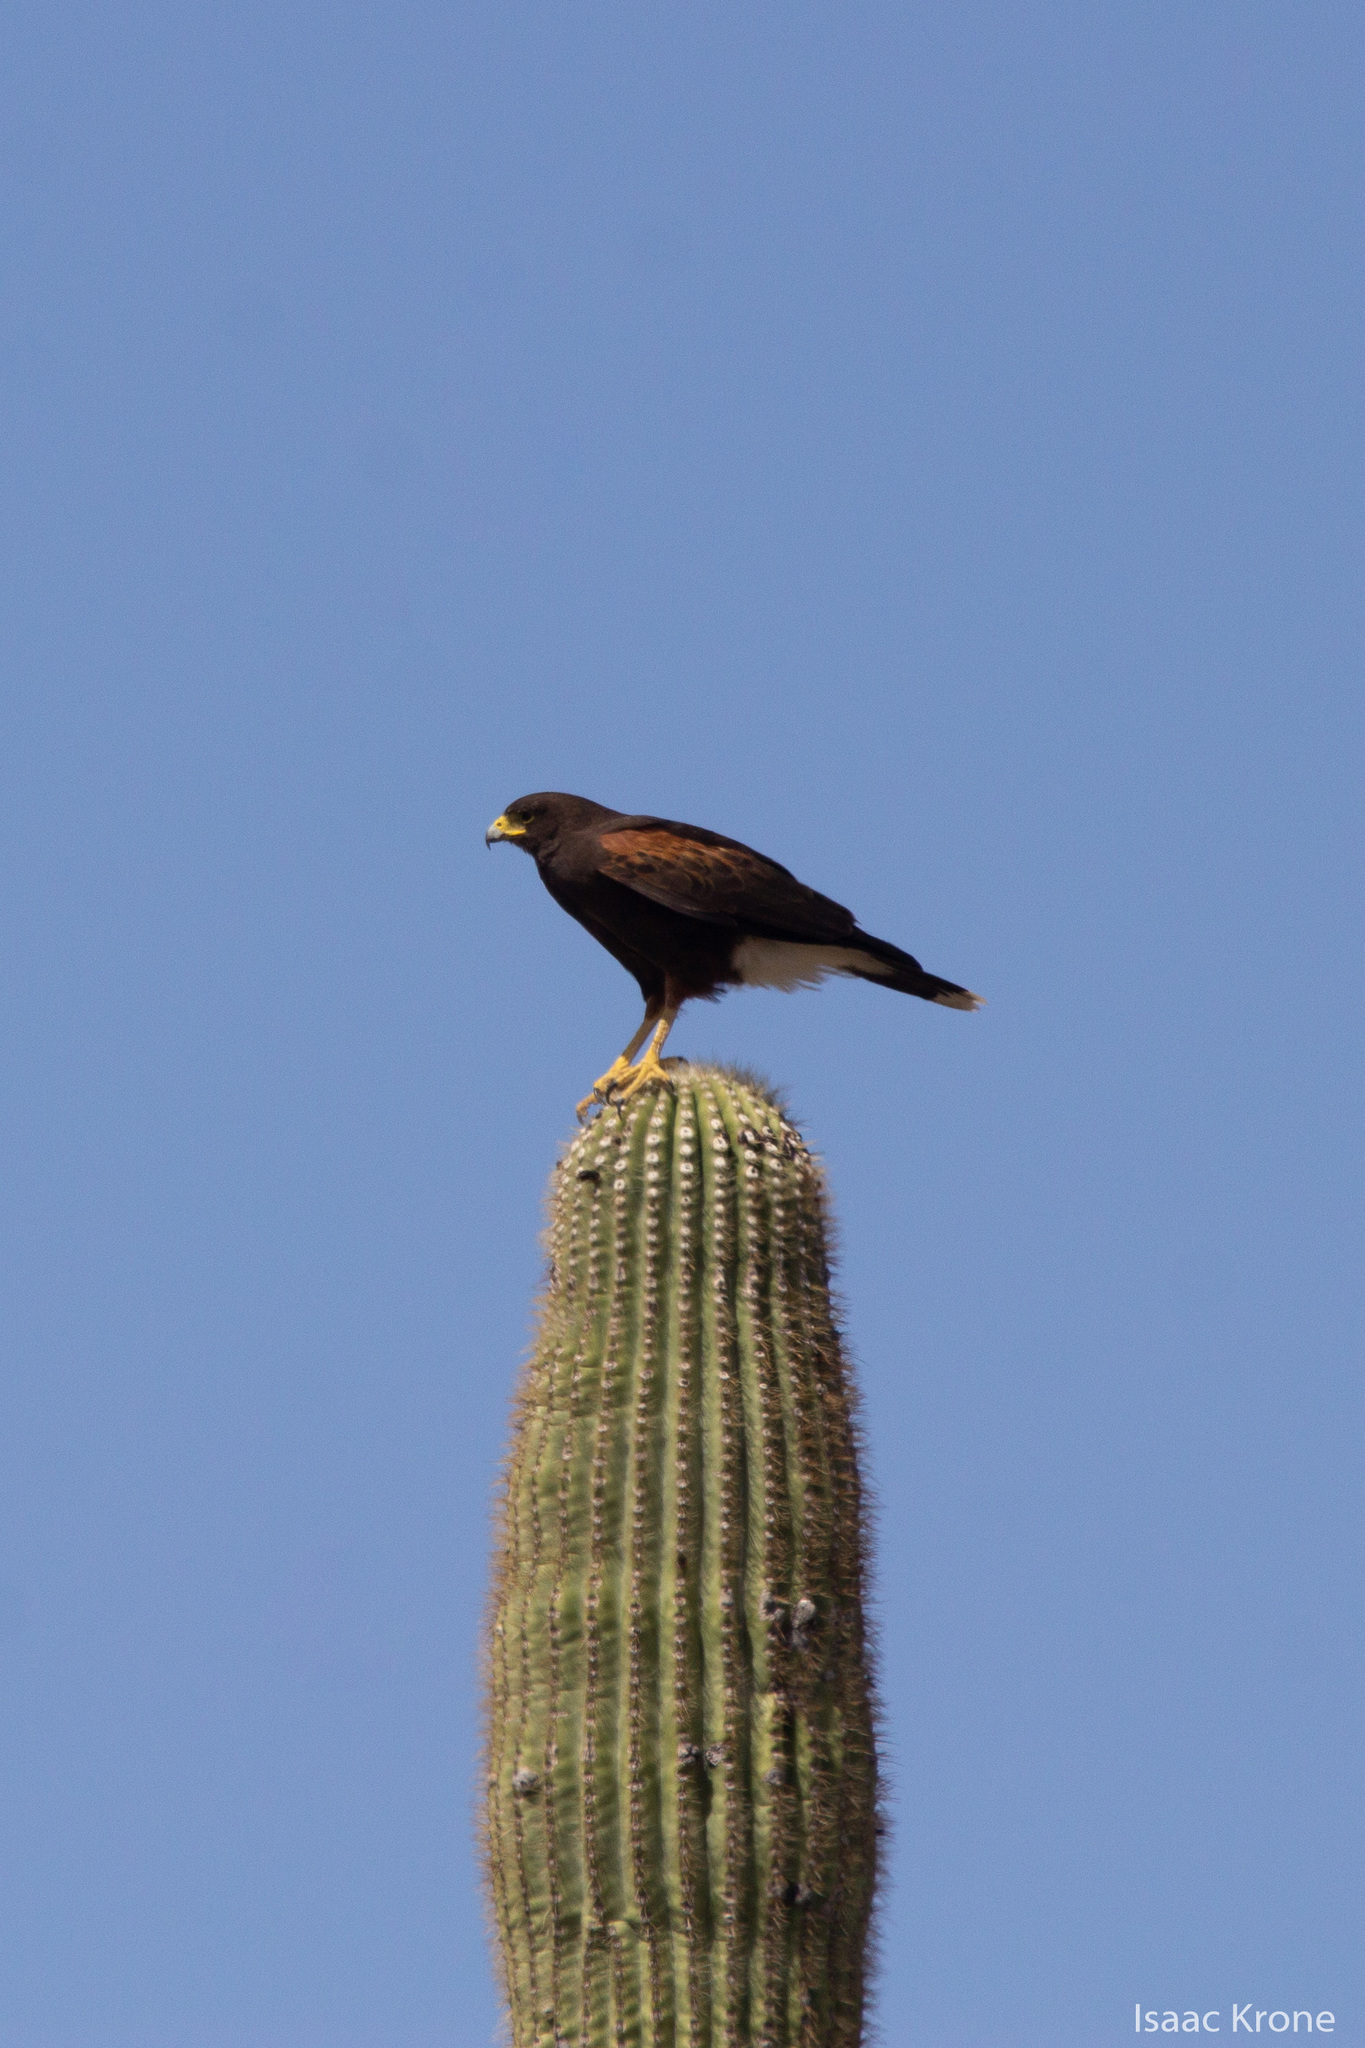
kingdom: Animalia
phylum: Chordata
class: Aves
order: Accipitriformes
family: Accipitridae
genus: Parabuteo
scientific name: Parabuteo unicinctus
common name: Harris's hawk
